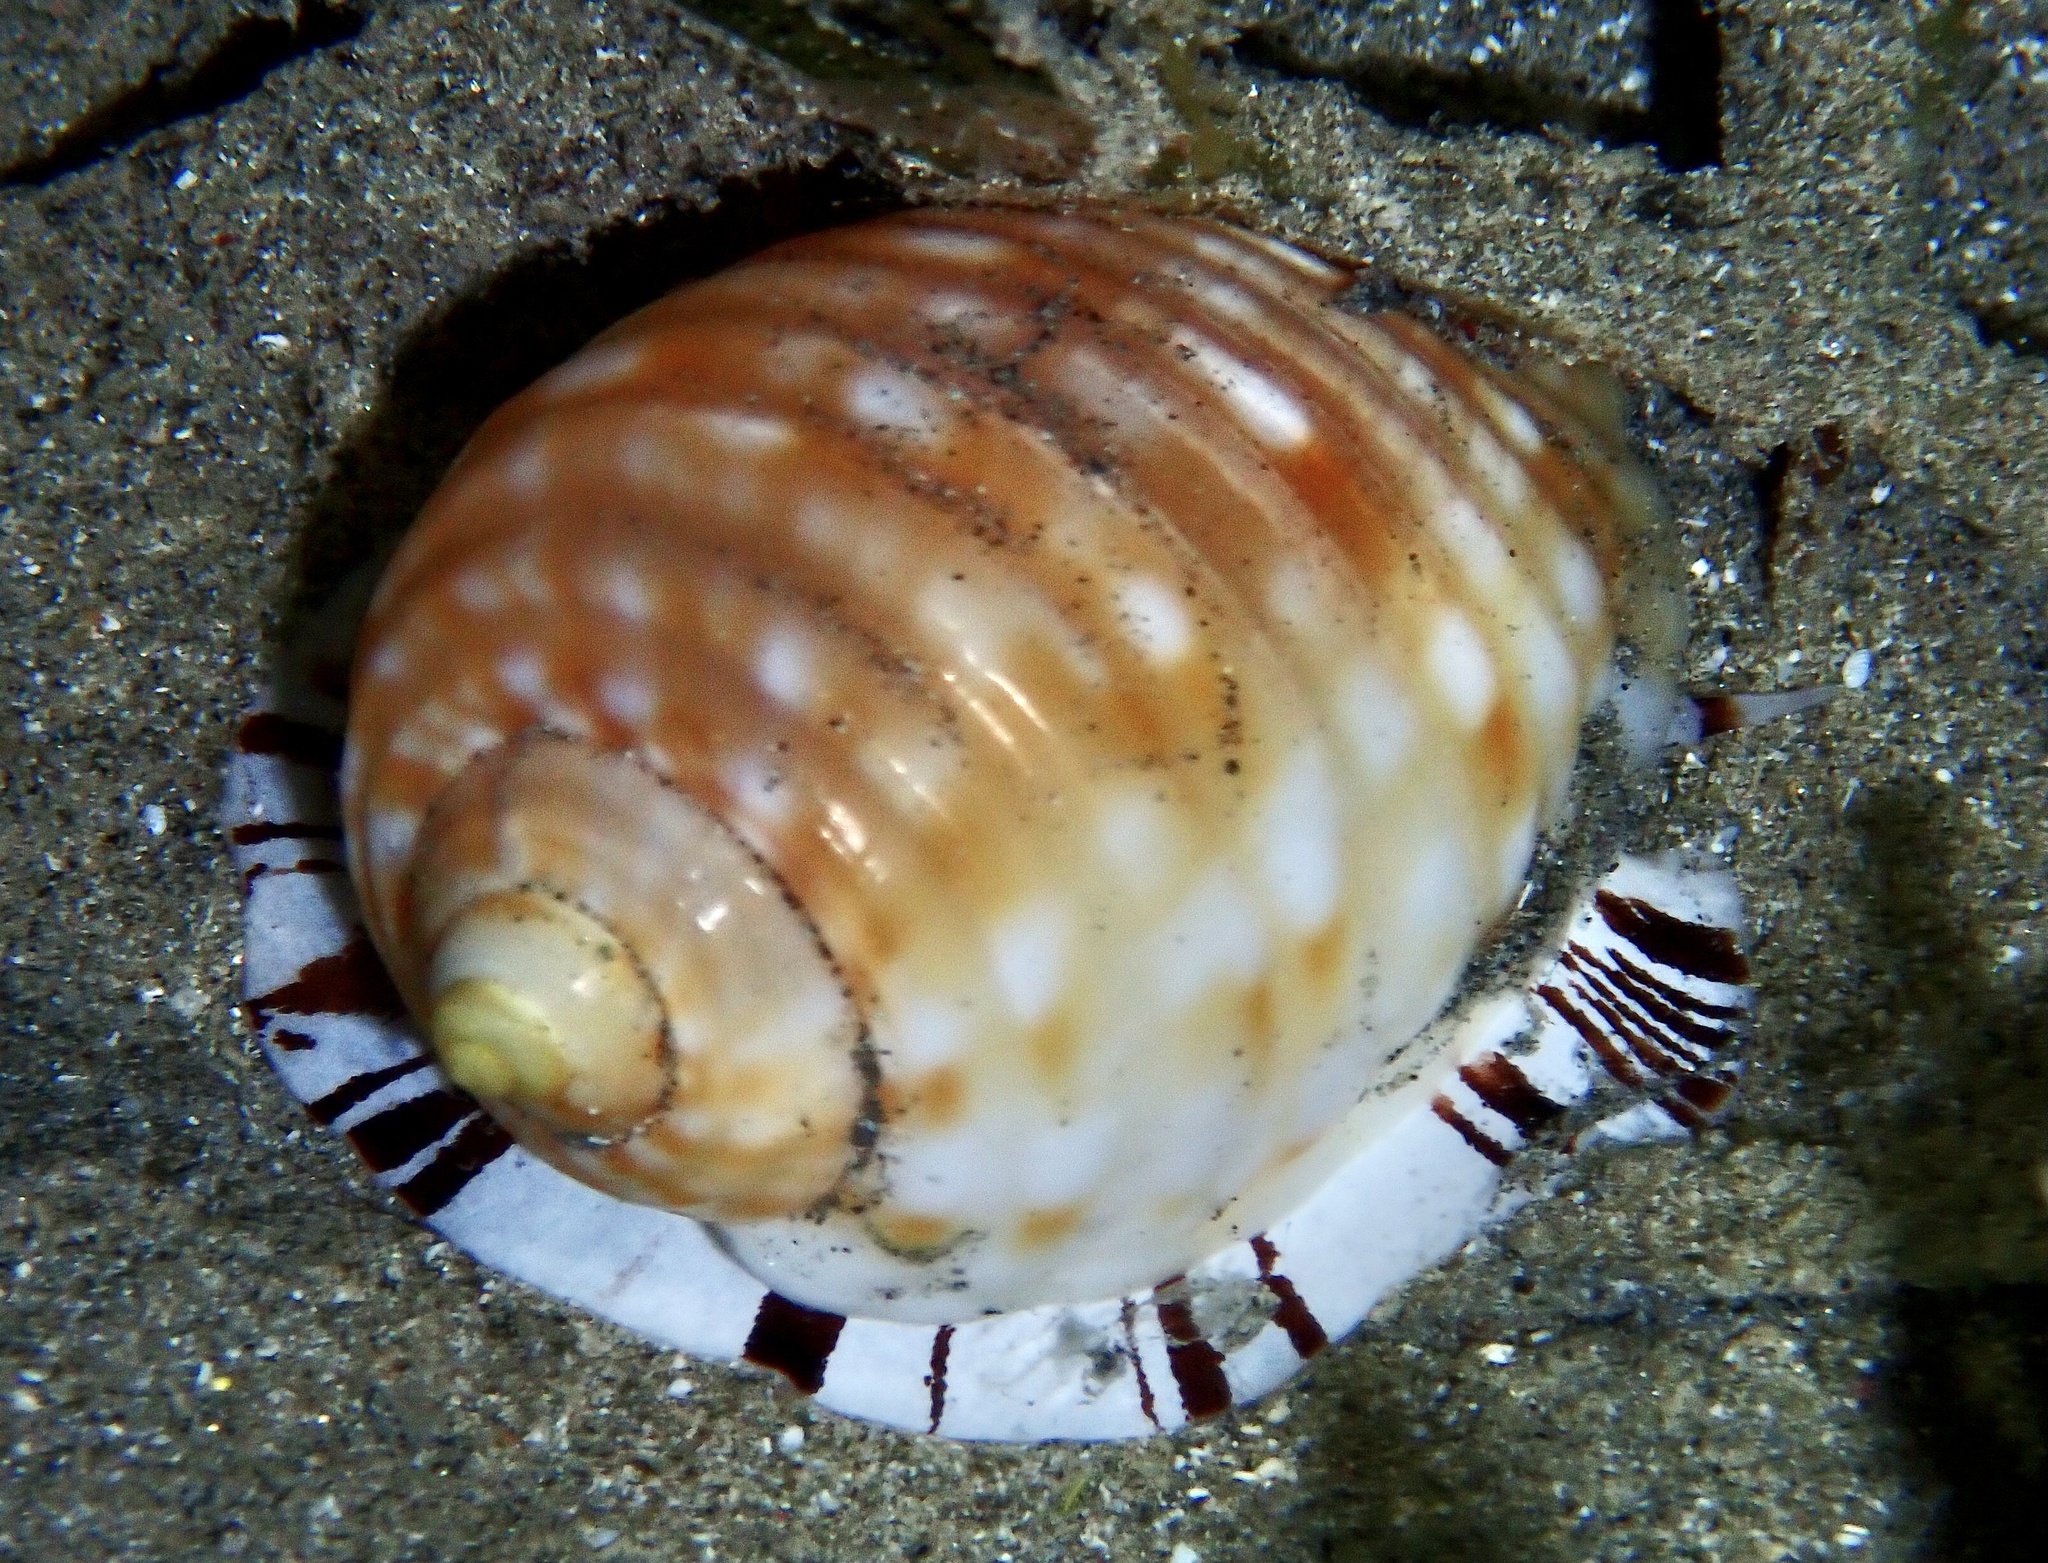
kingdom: Animalia
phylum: Mollusca
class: Gastropoda
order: Littorinimorpha
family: Tonnidae
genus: Malea
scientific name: Malea pomum
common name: Pacific grinning tun
